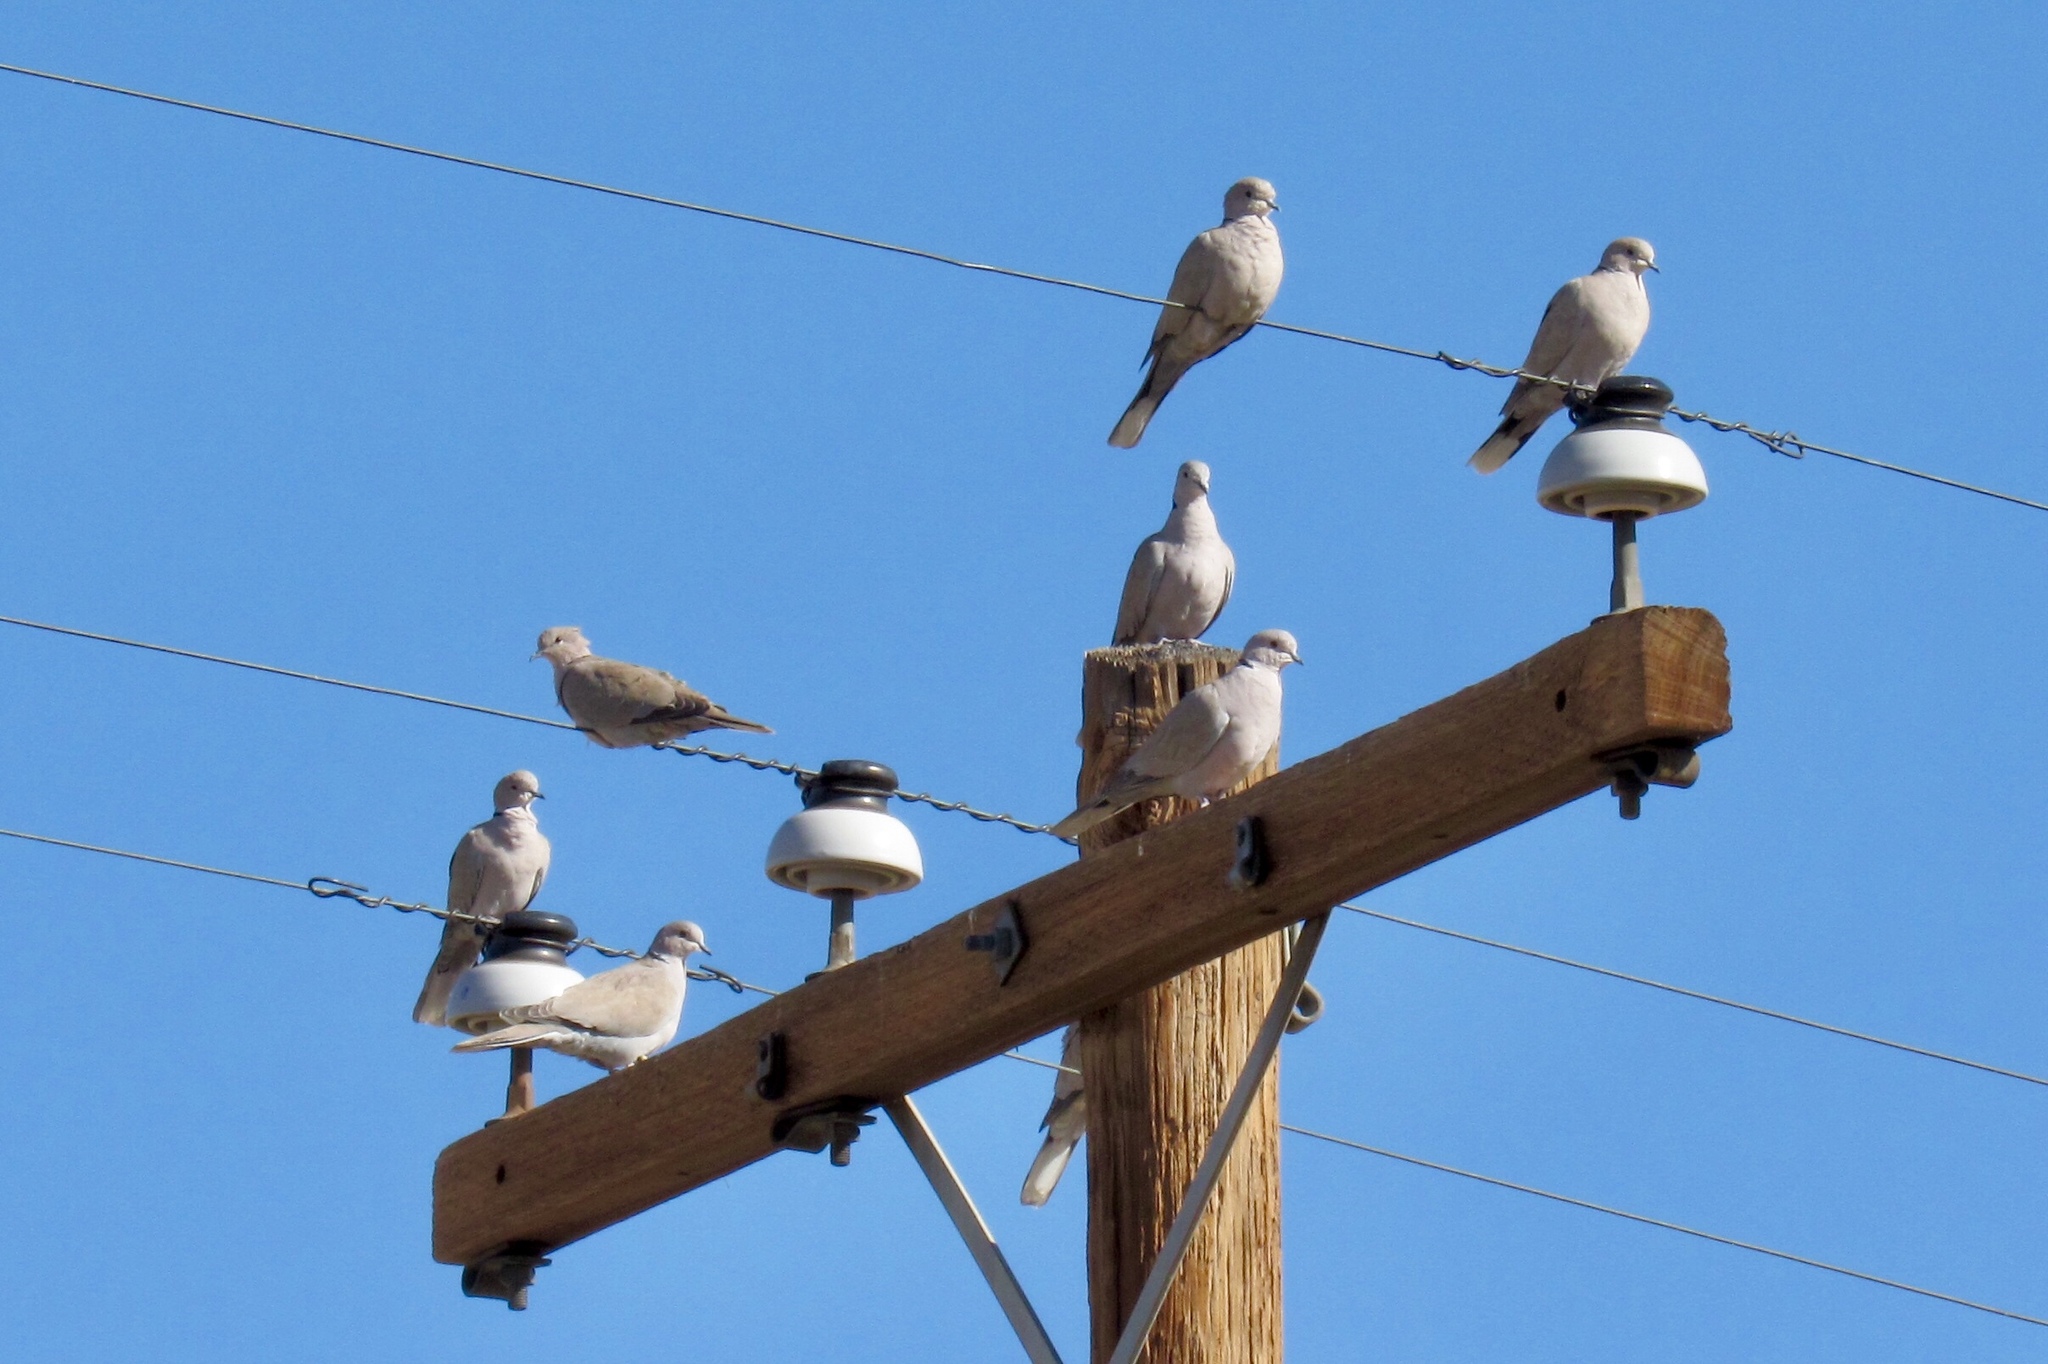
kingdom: Animalia
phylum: Chordata
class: Aves
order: Columbiformes
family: Columbidae
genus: Streptopelia
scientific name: Streptopelia decaocto
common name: Eurasian collared dove
